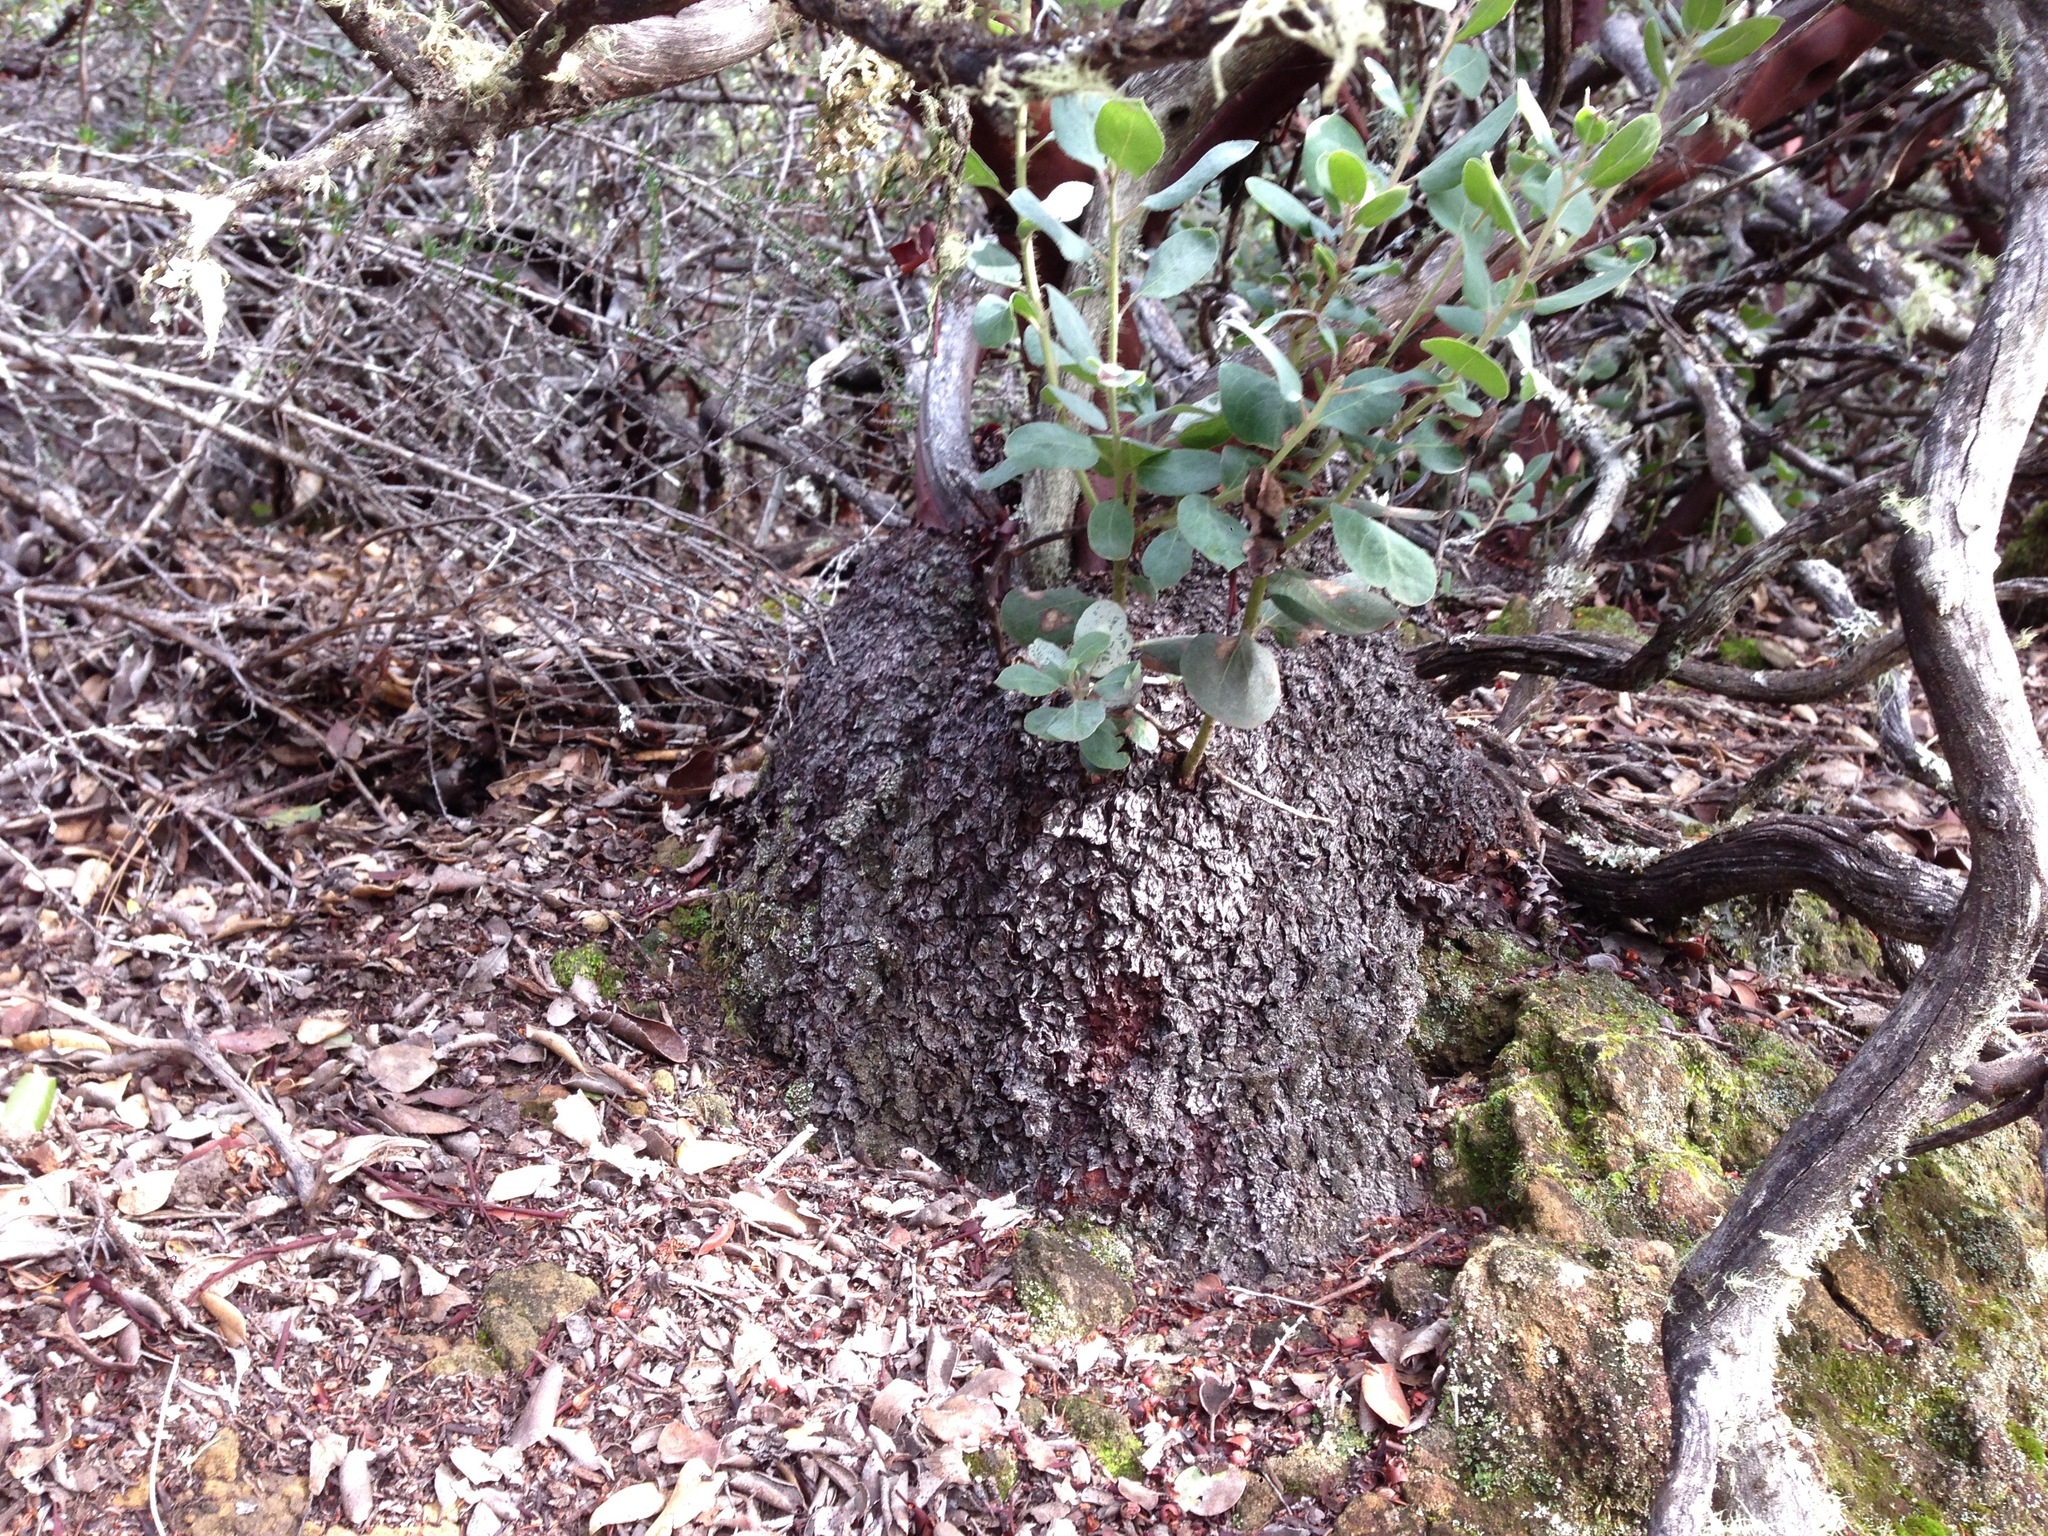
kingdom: Plantae
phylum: Tracheophyta
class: Magnoliopsida
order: Ericales
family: Ericaceae
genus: Arctostaphylos
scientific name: Arctostaphylos crustacea
